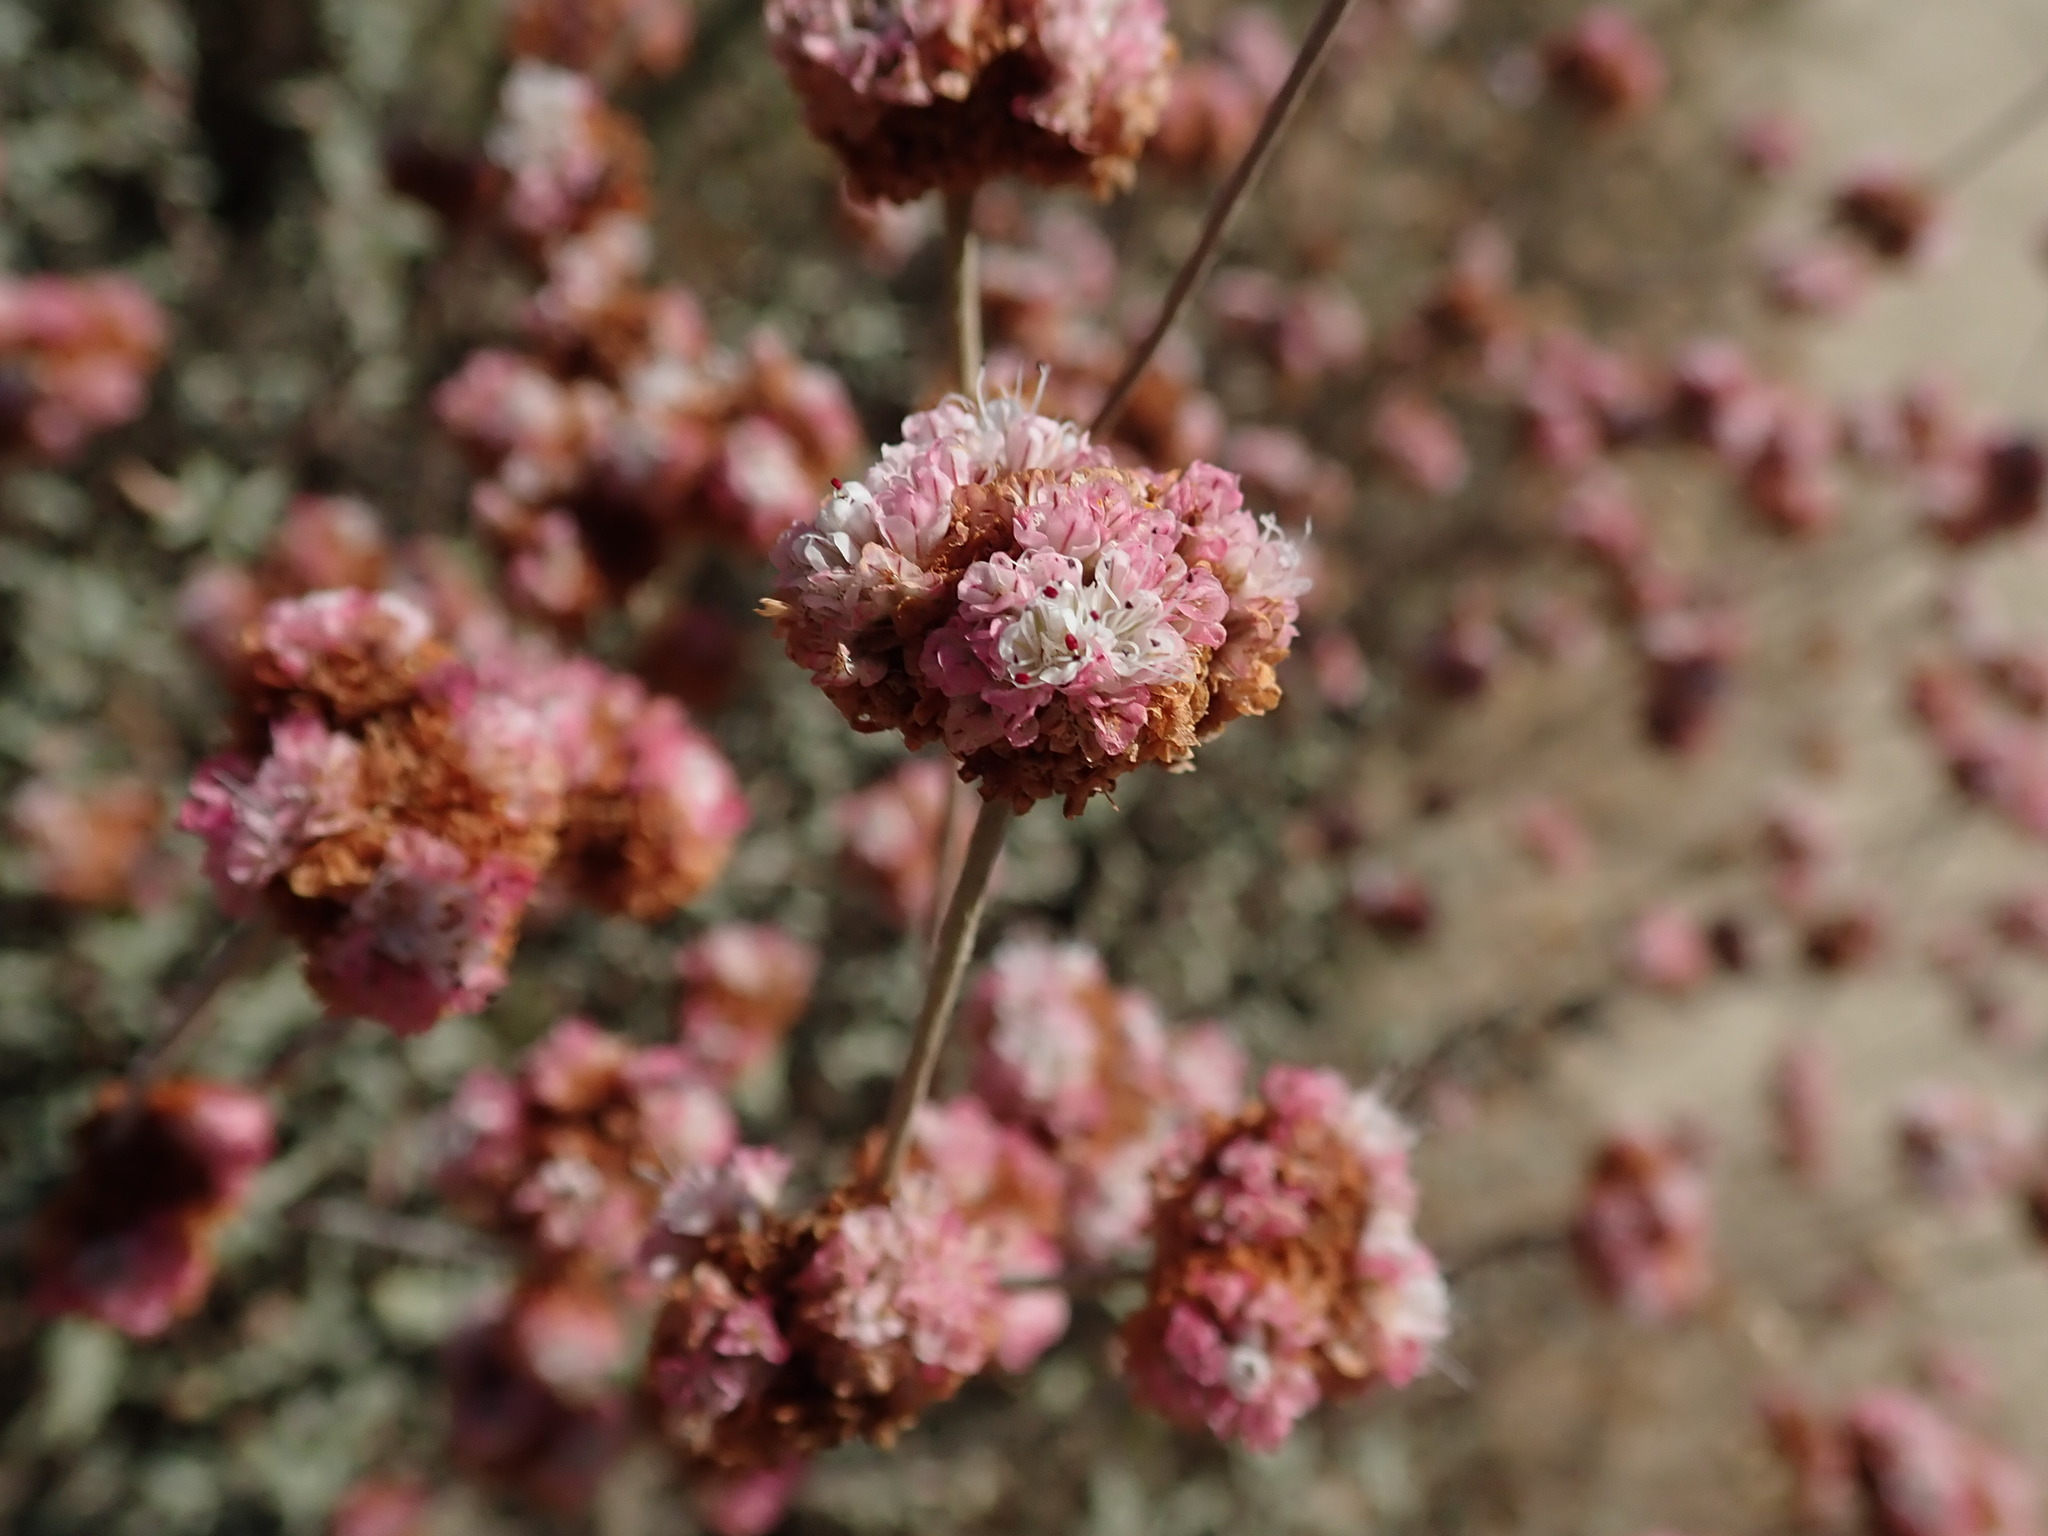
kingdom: Plantae
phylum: Tracheophyta
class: Magnoliopsida
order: Caryophyllales
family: Polygonaceae
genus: Eriogonum
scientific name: Eriogonum parvifolium
